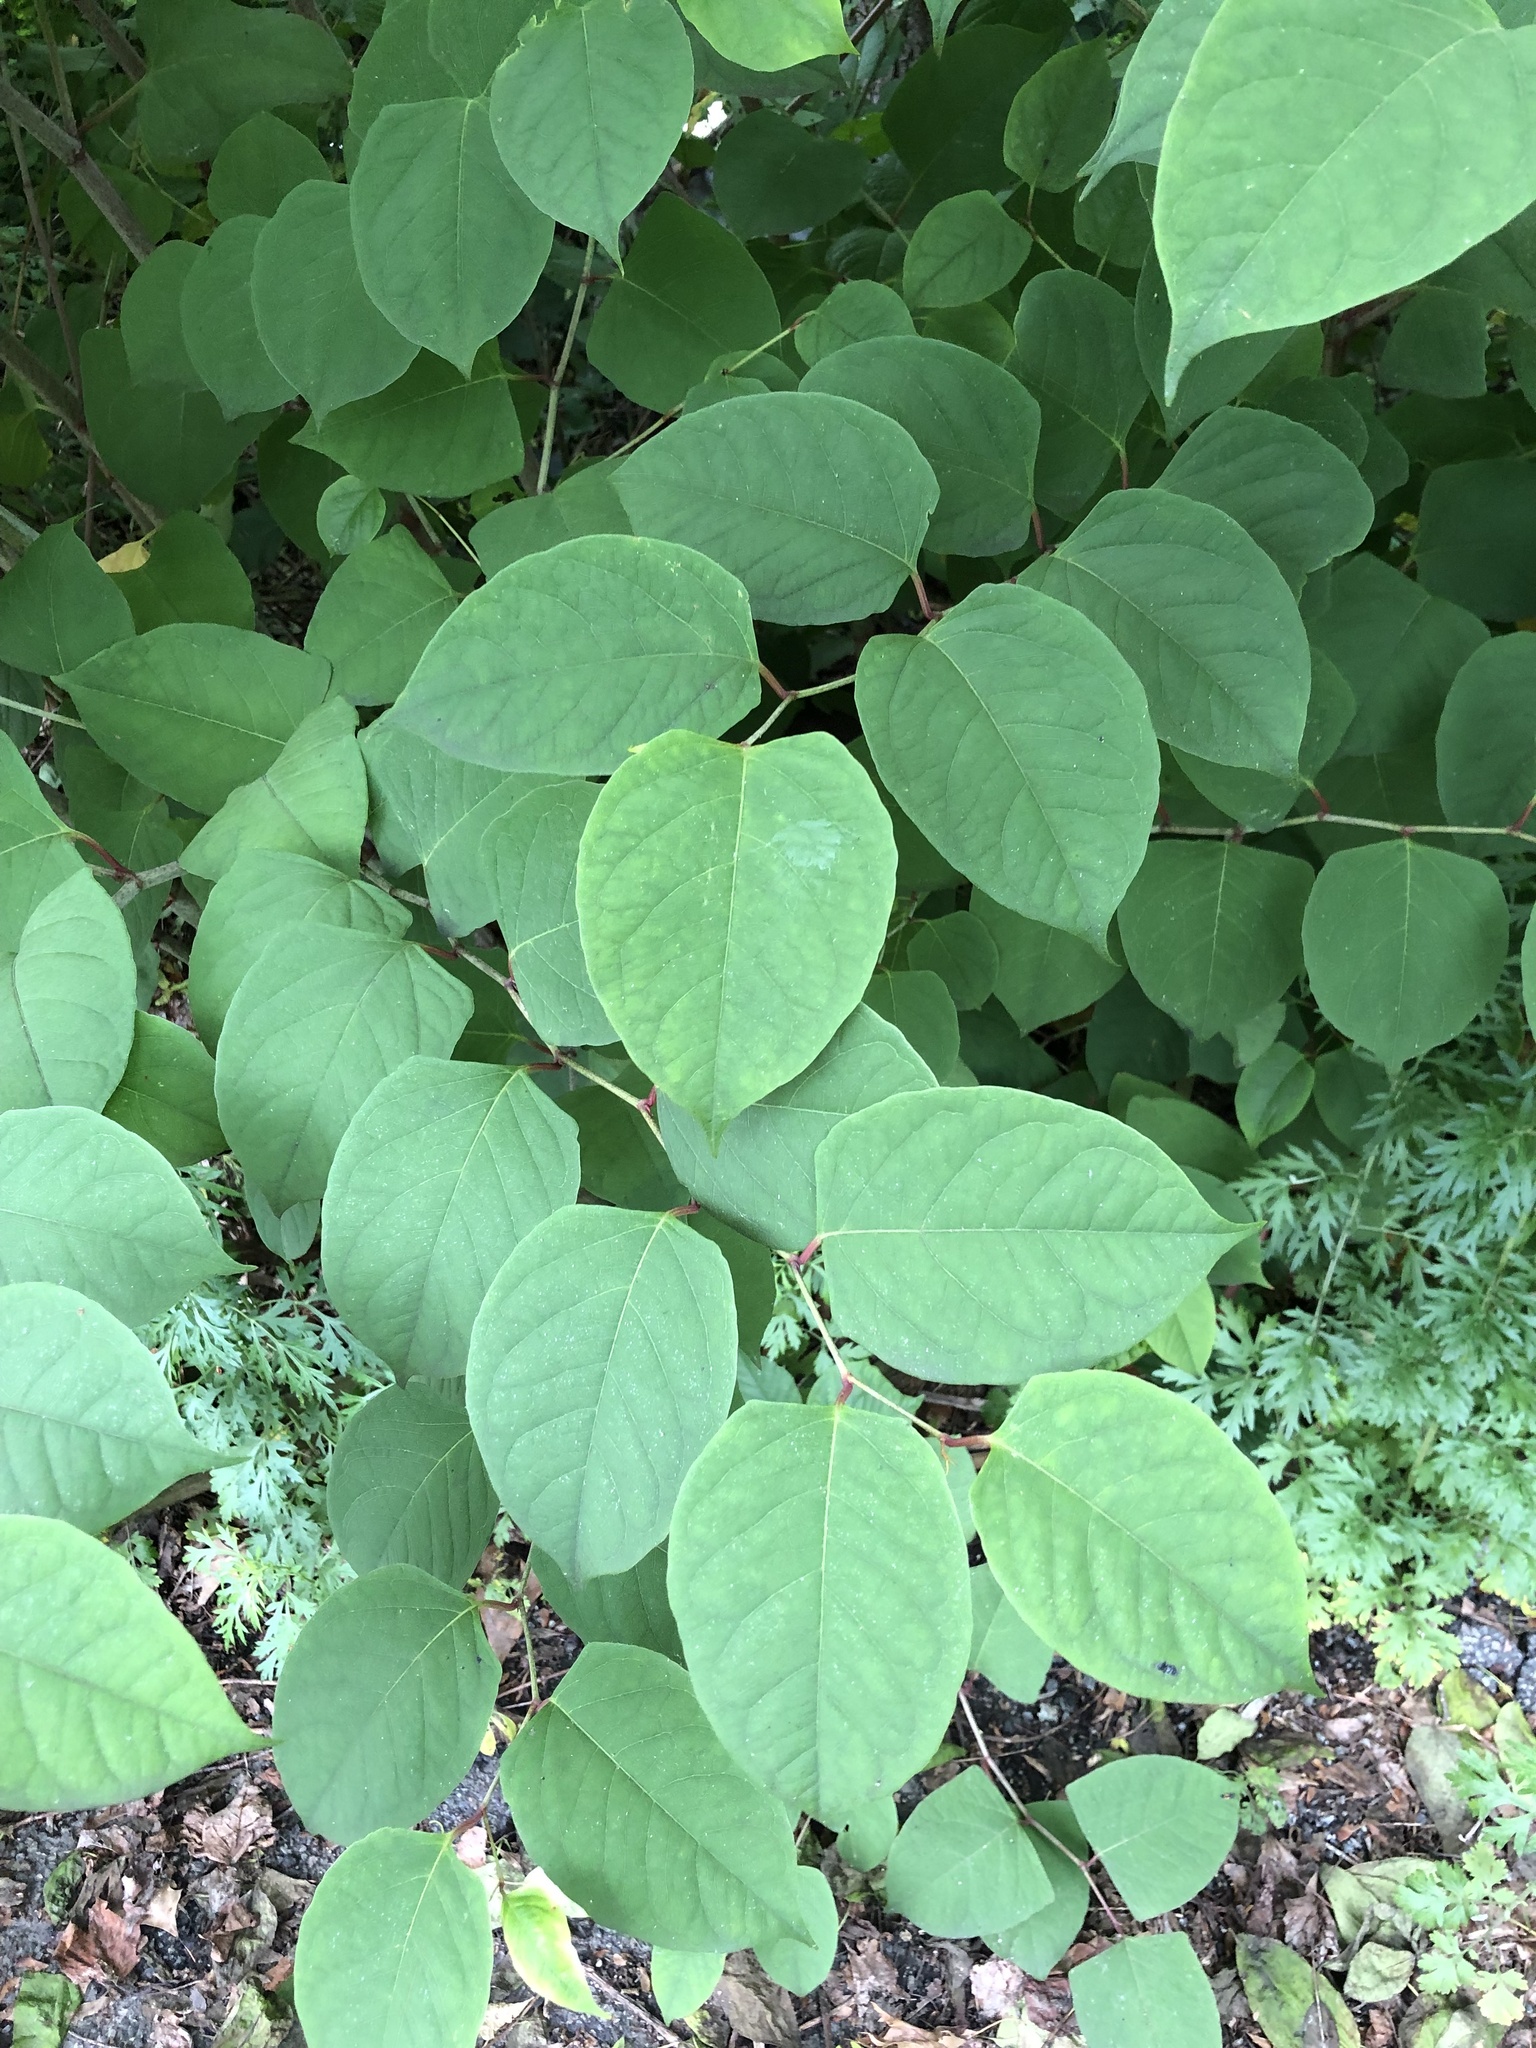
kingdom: Plantae
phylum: Tracheophyta
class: Magnoliopsida
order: Caryophyllales
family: Polygonaceae
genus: Reynoutria
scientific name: Reynoutria japonica
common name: Japanese knotweed
